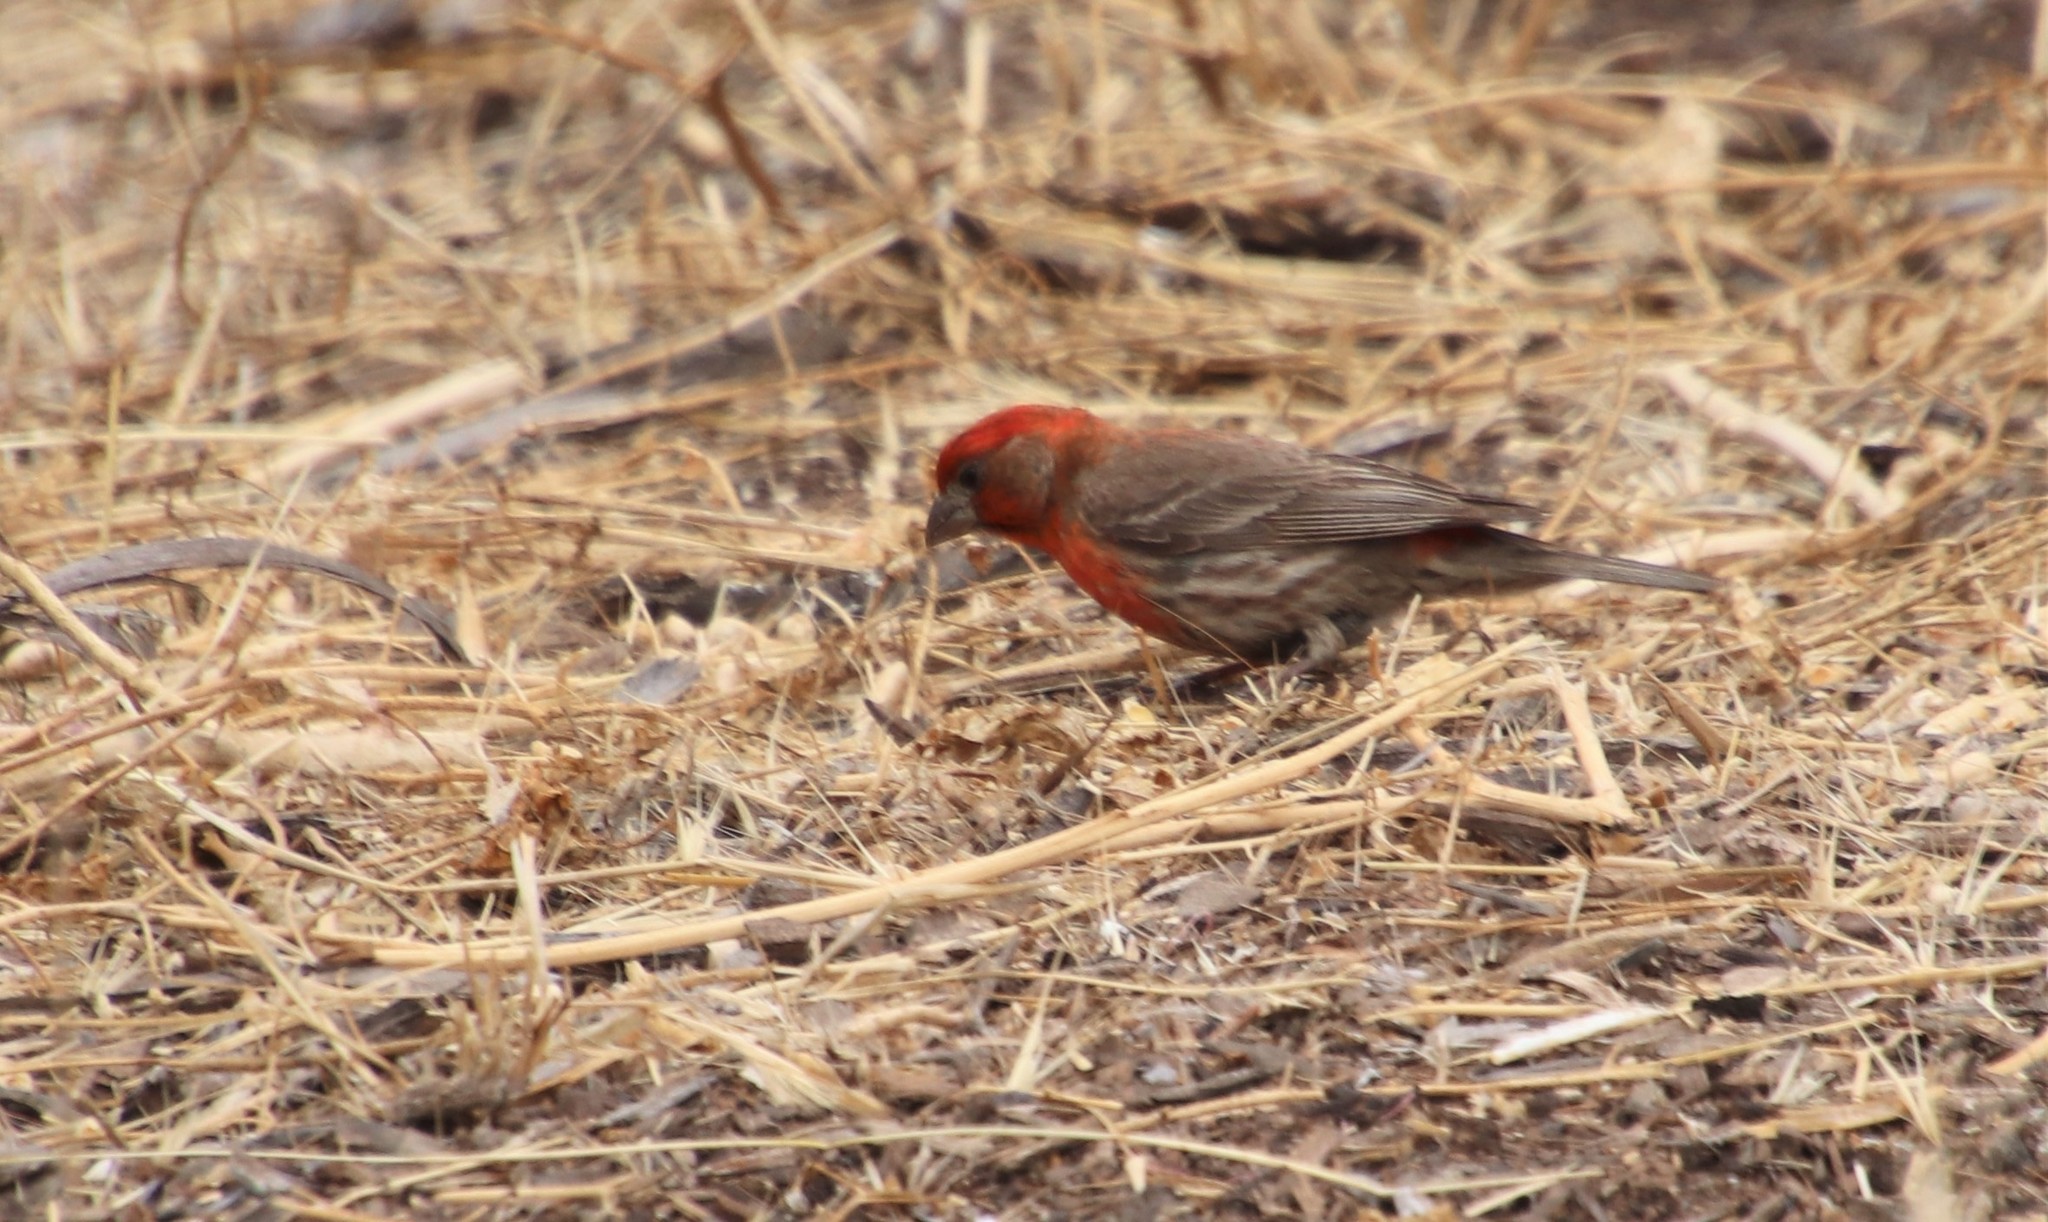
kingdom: Animalia
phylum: Chordata
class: Aves
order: Passeriformes
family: Fringillidae
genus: Haemorhous
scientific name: Haemorhous mexicanus
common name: House finch
